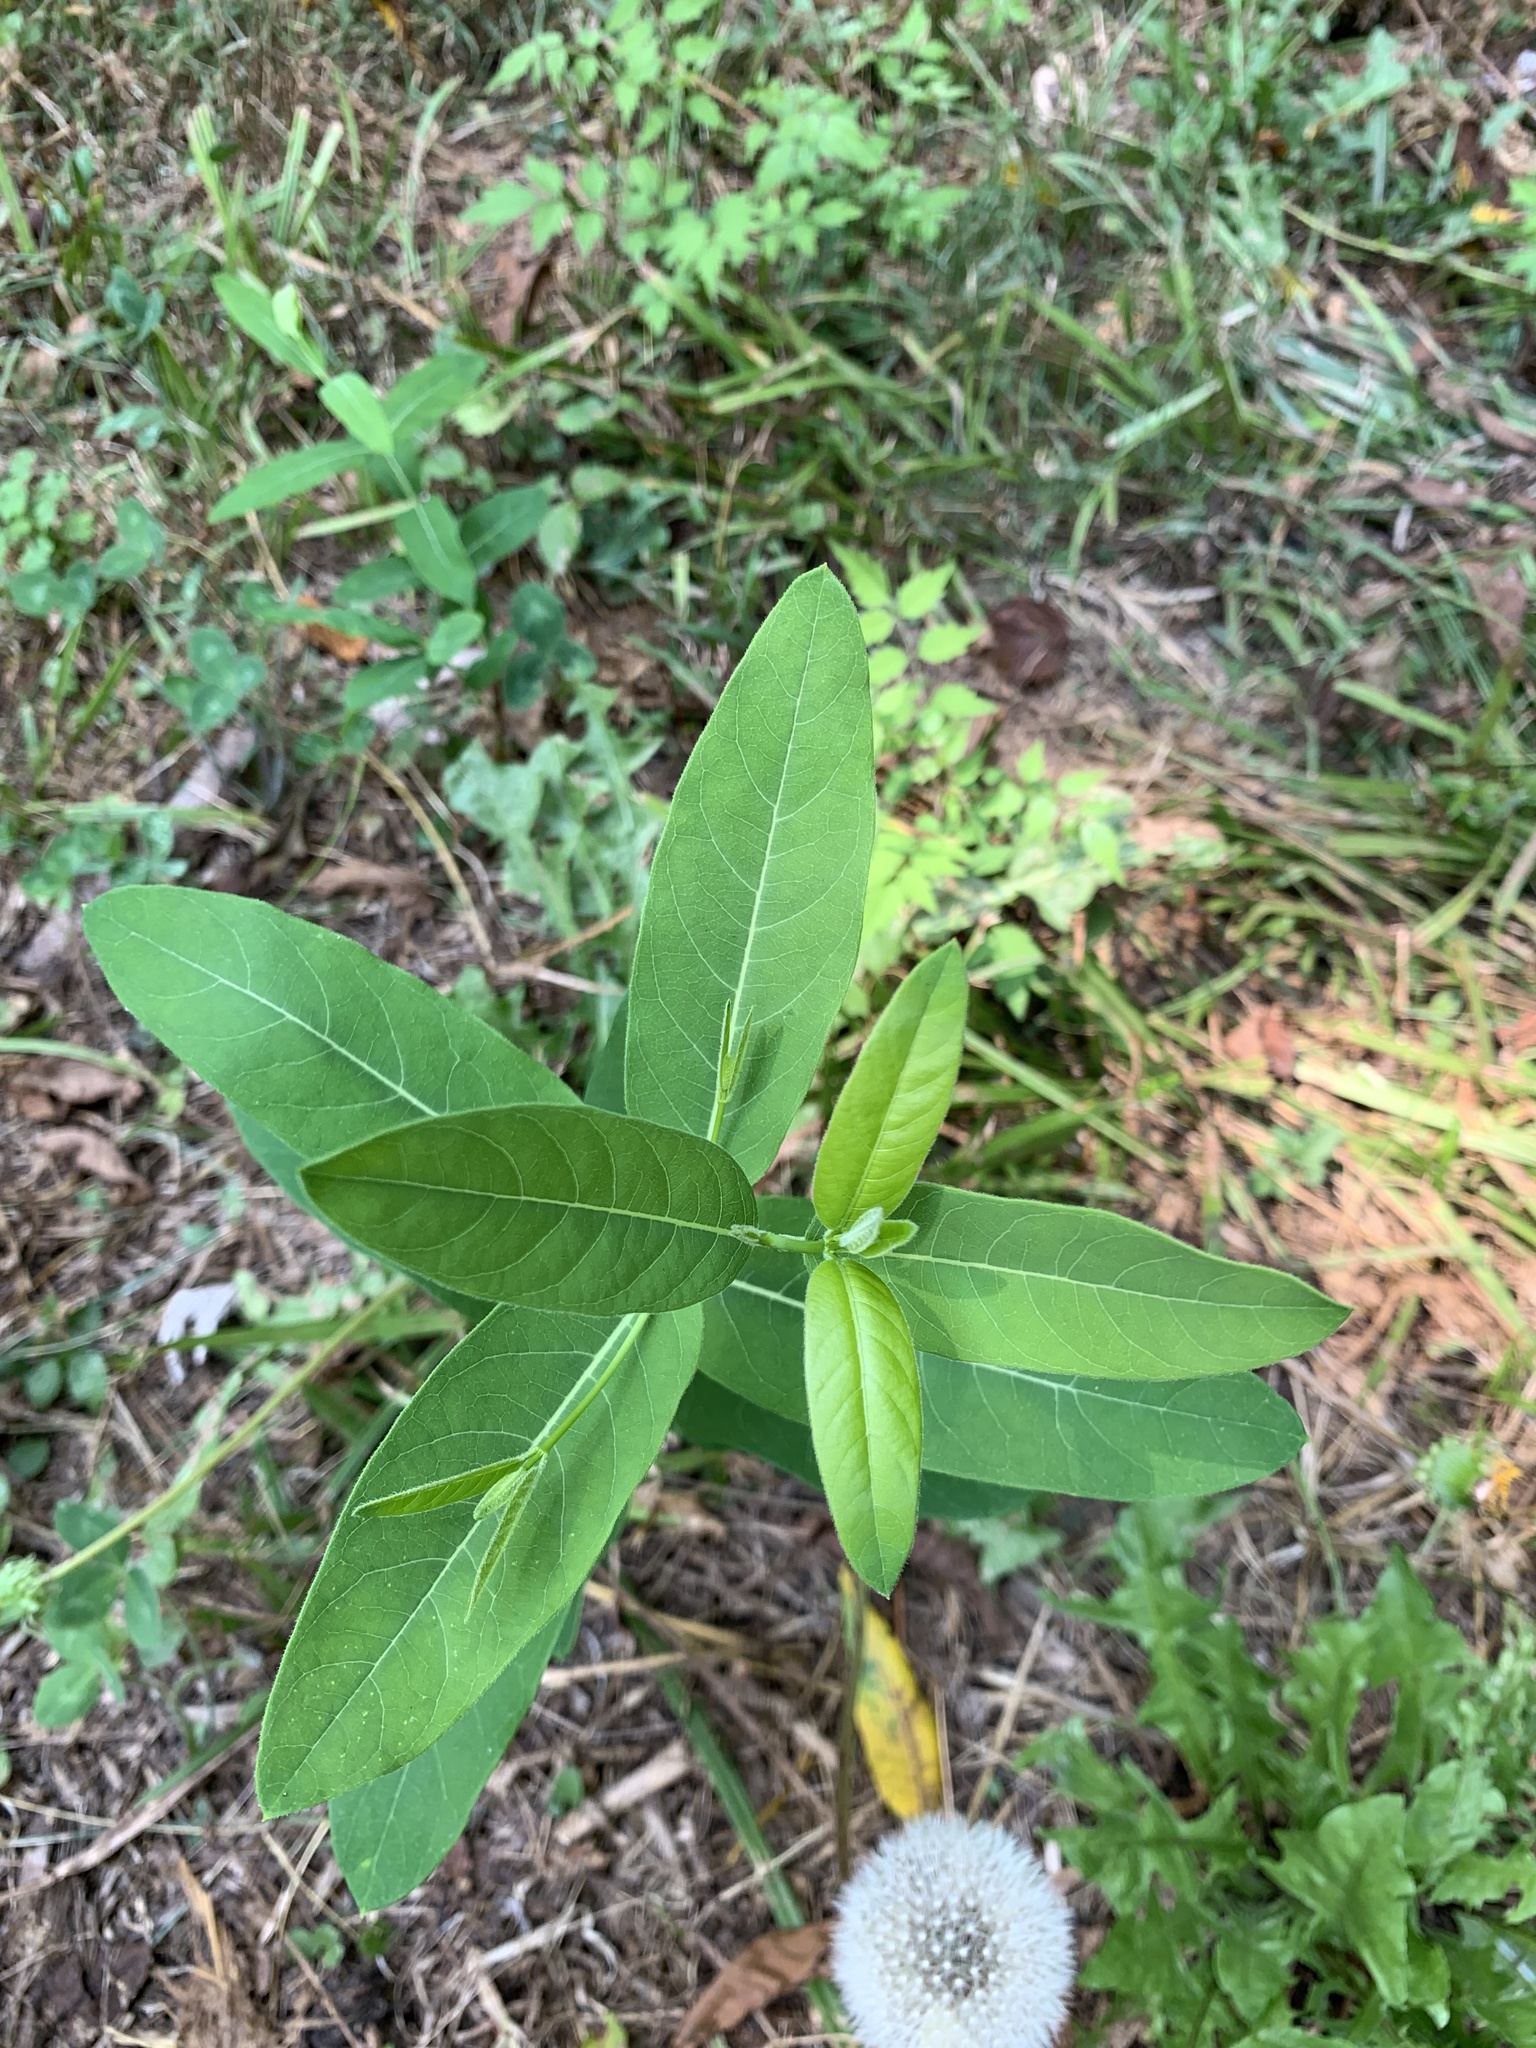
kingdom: Plantae
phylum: Tracheophyta
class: Magnoliopsida
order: Gentianales
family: Apocynaceae
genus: Apocynum
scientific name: Apocynum cannabinum
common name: Hemp dogbane
